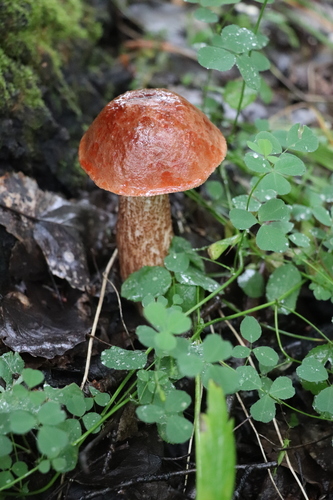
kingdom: Fungi
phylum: Basidiomycota
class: Agaricomycetes
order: Boletales
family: Boletaceae
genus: Leccinum
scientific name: Leccinum aurantiacum
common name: Orange bolete
